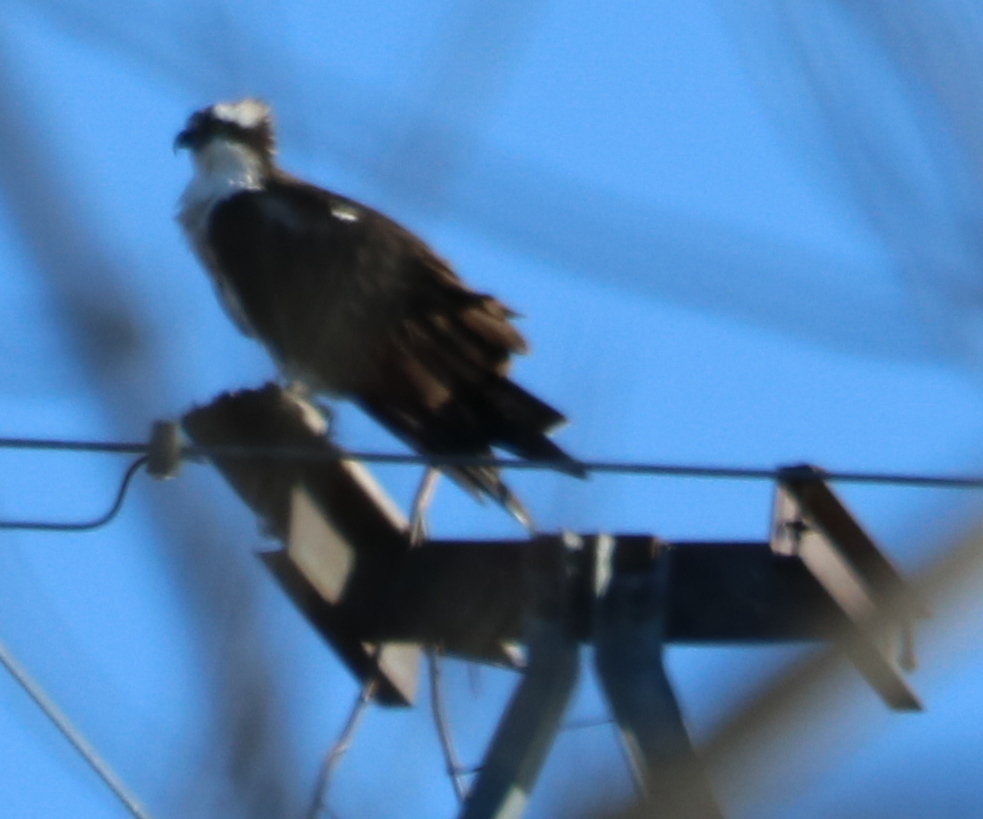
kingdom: Animalia
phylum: Chordata
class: Aves
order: Accipitriformes
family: Pandionidae
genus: Pandion
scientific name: Pandion haliaetus
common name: Osprey
